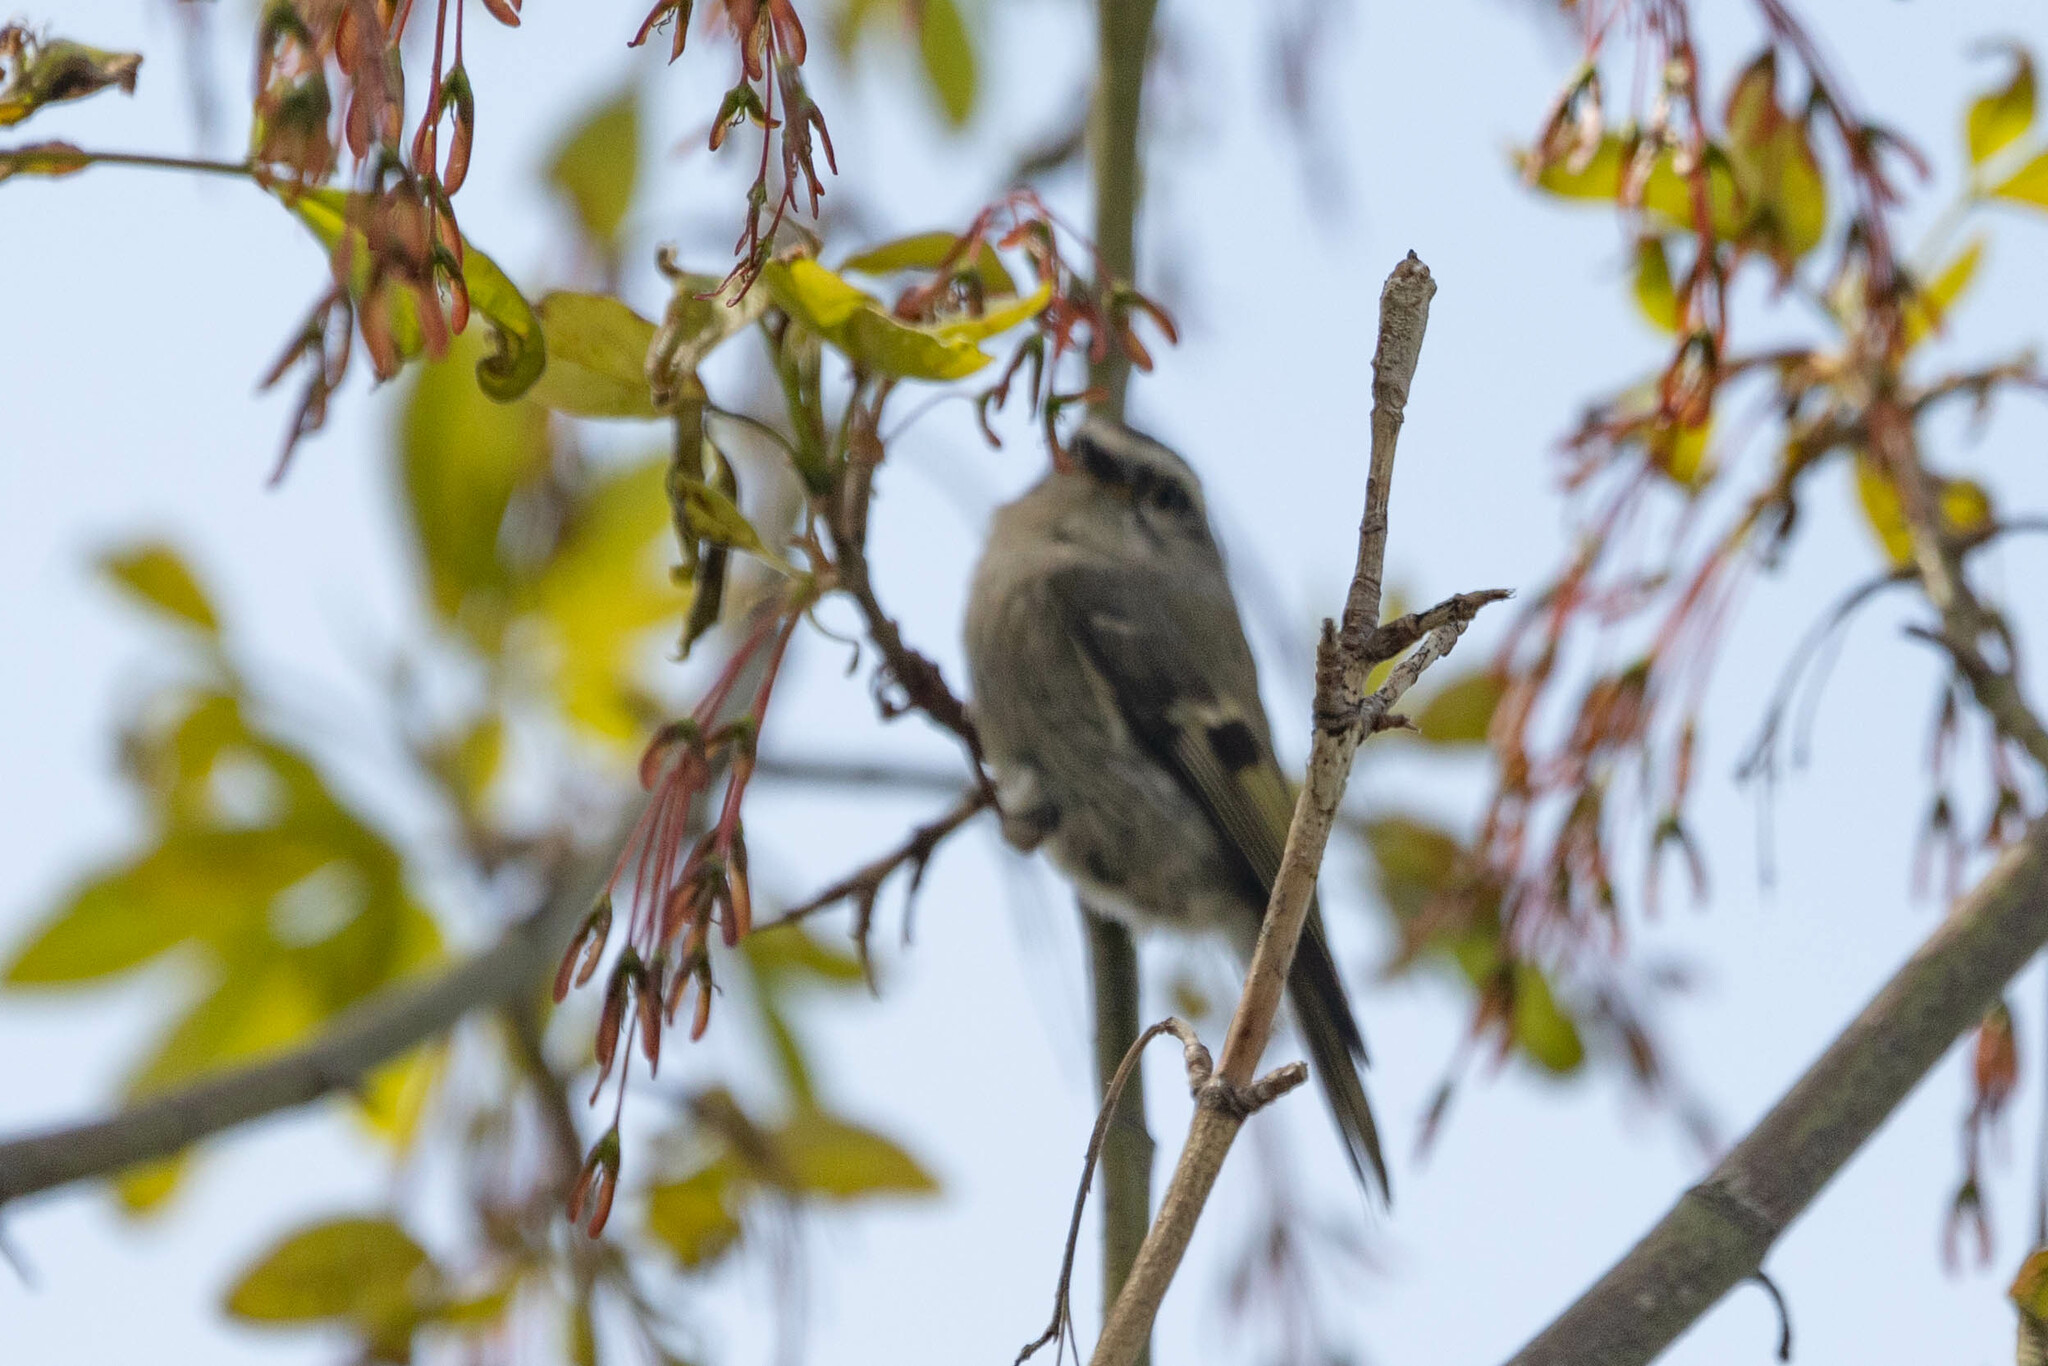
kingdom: Animalia
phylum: Chordata
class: Aves
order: Passeriformes
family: Regulidae
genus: Regulus
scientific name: Regulus satrapa
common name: Golden-crowned kinglet
